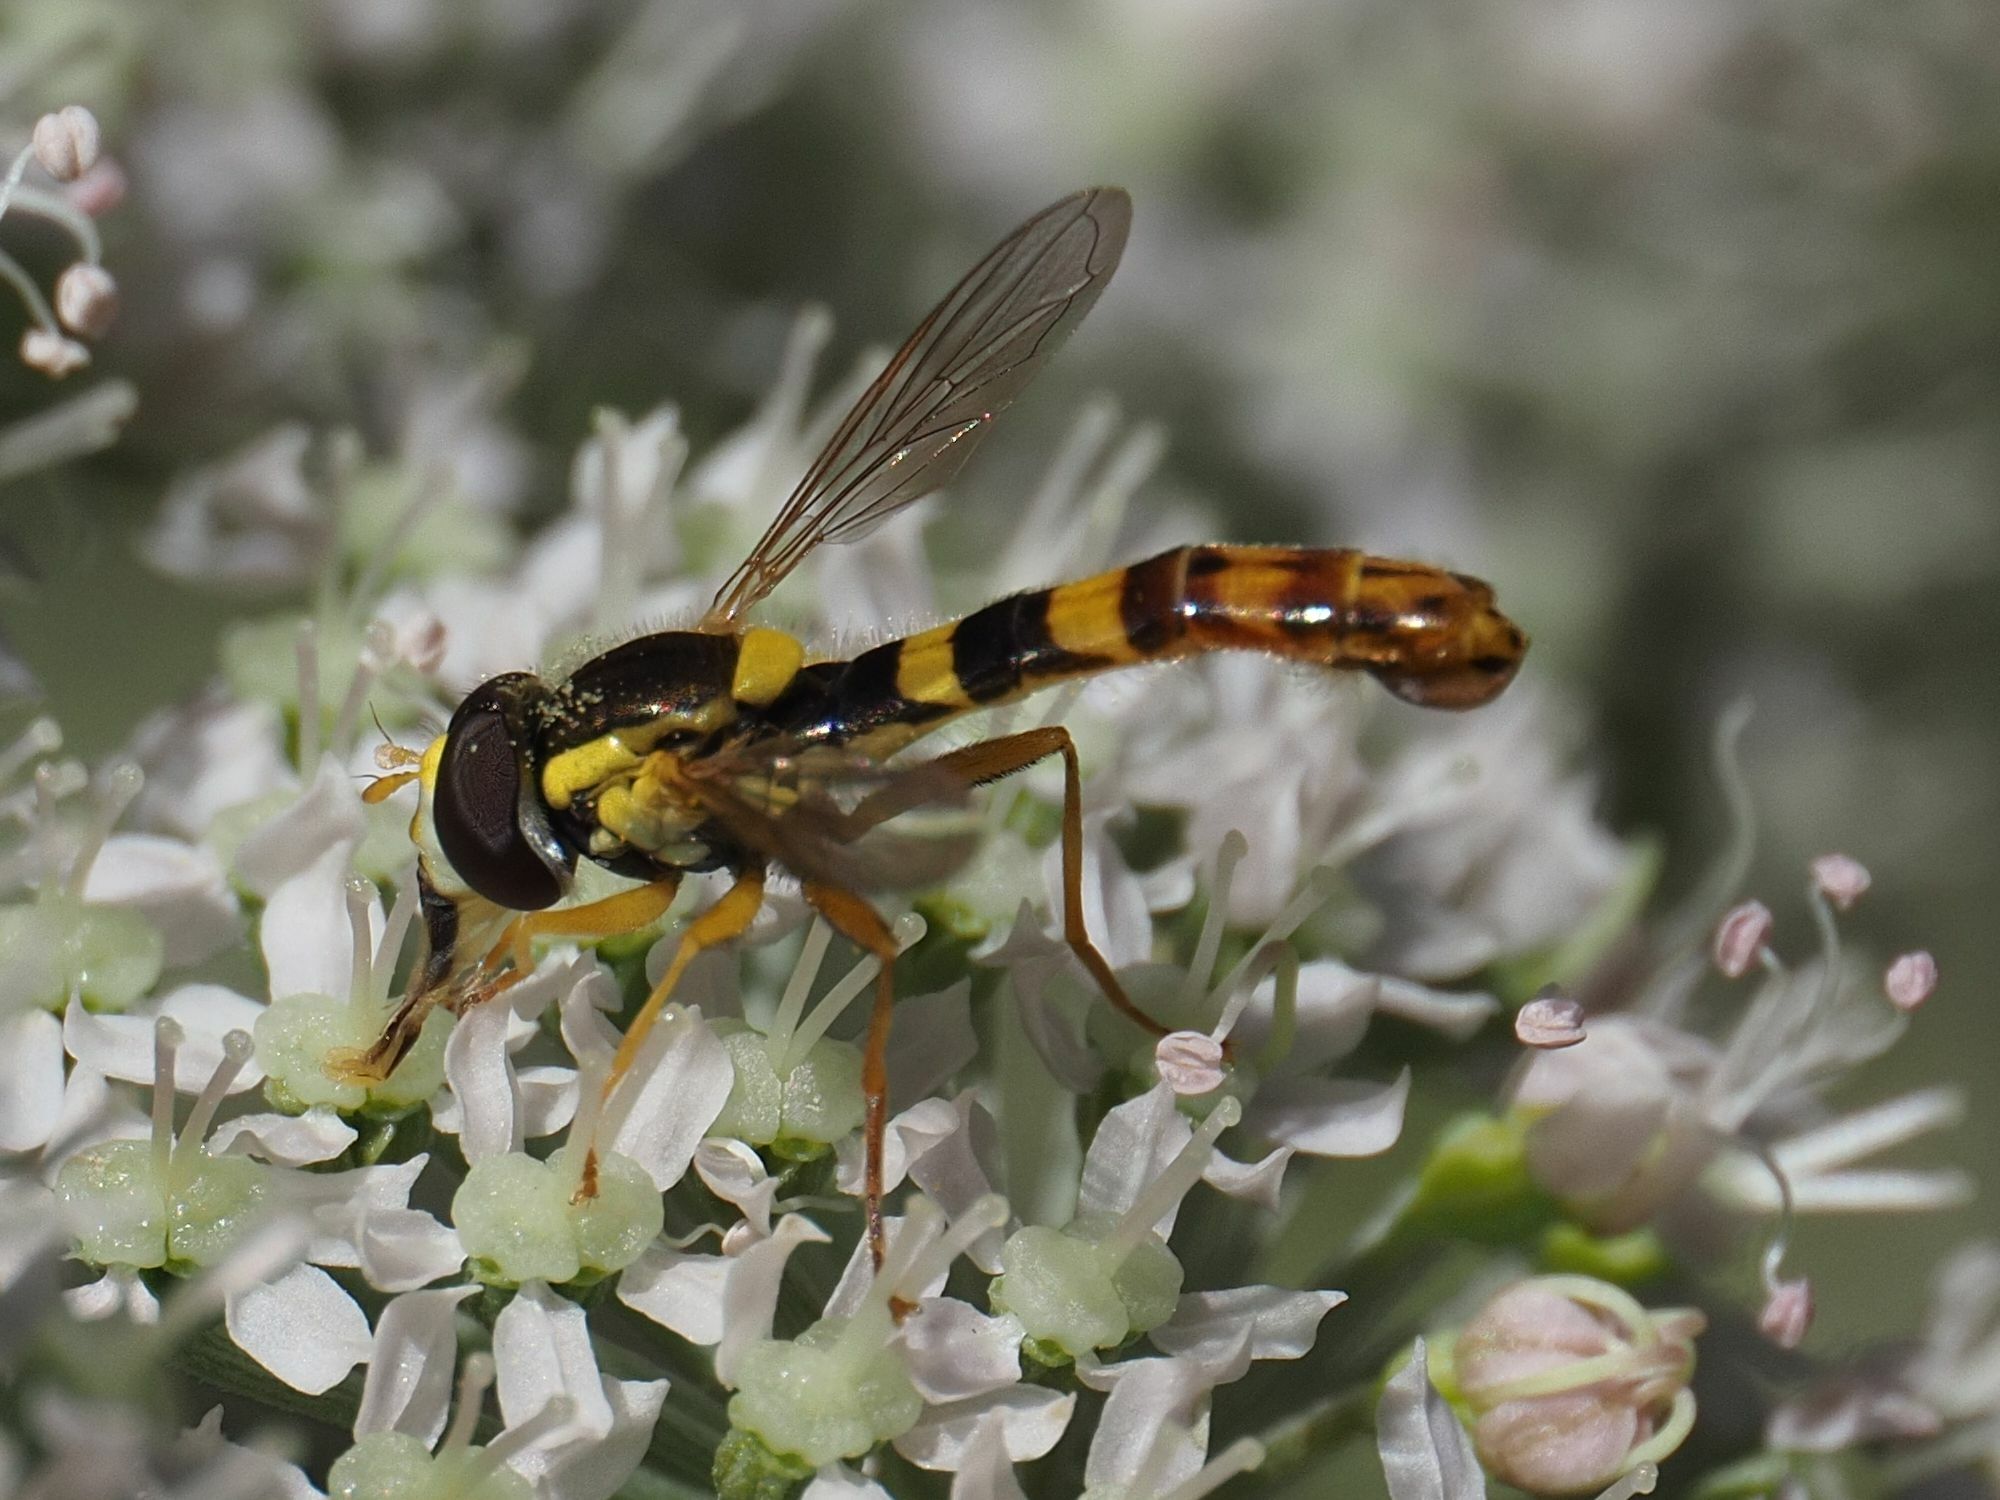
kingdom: Animalia
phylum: Arthropoda
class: Insecta
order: Diptera
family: Syrphidae
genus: Sphaerophoria
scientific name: Sphaerophoria scripta
